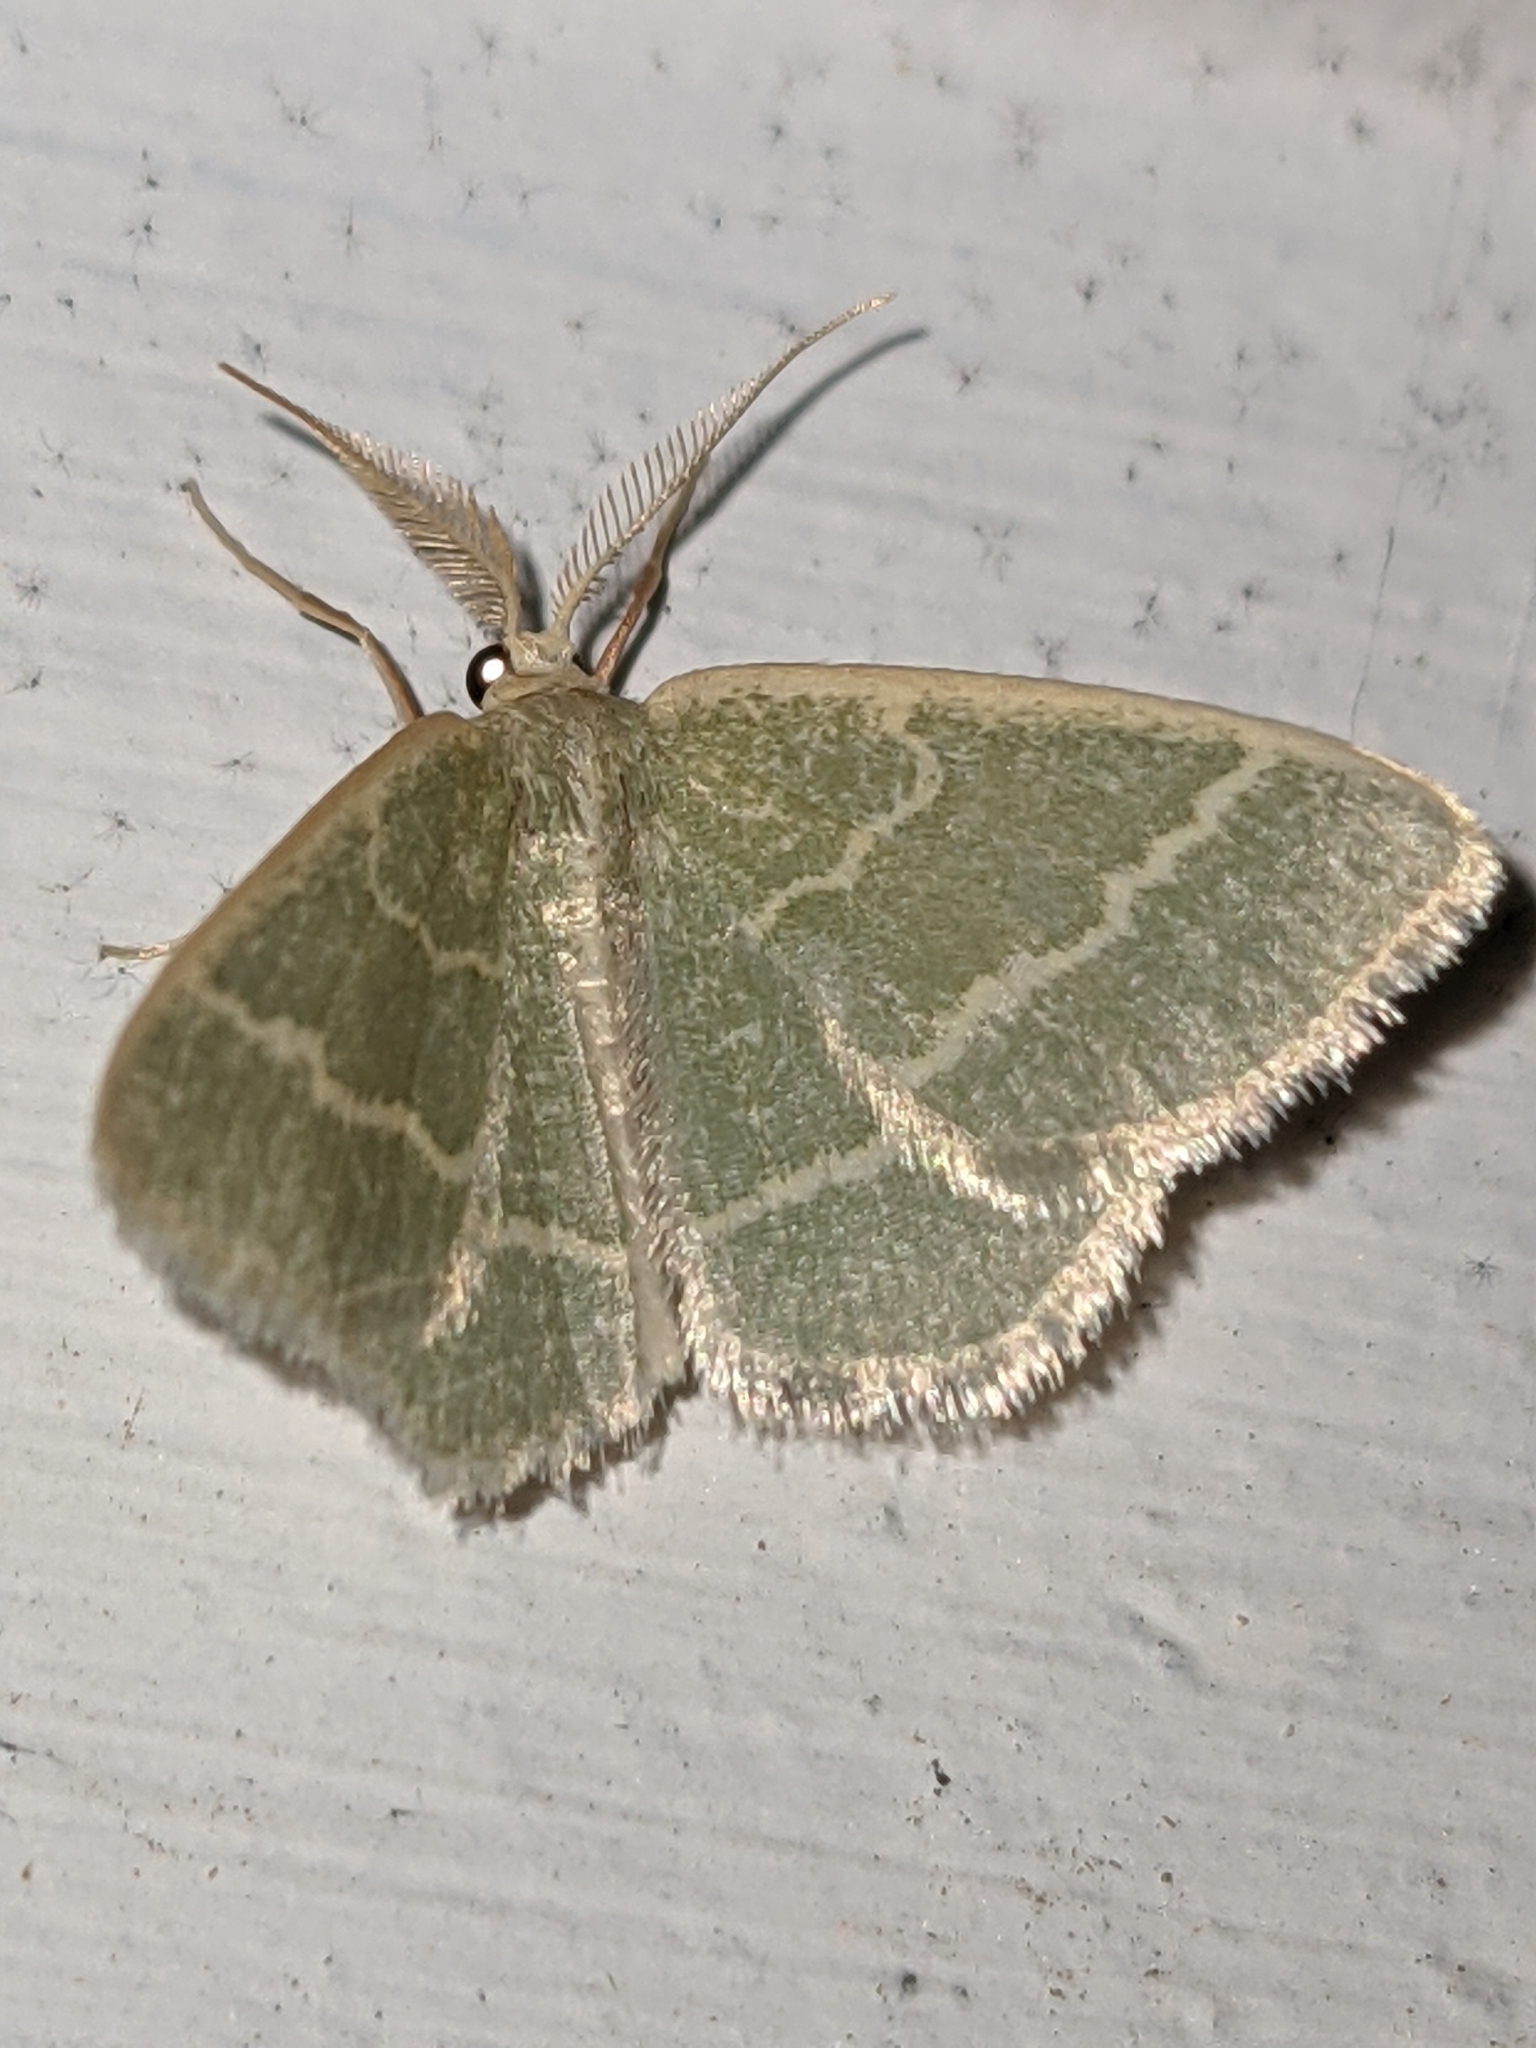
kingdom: Animalia
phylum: Arthropoda
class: Insecta
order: Lepidoptera
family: Geometridae
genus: Chlorochlamys
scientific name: Chlorochlamys chloroleucaria
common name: Blackberry looper
